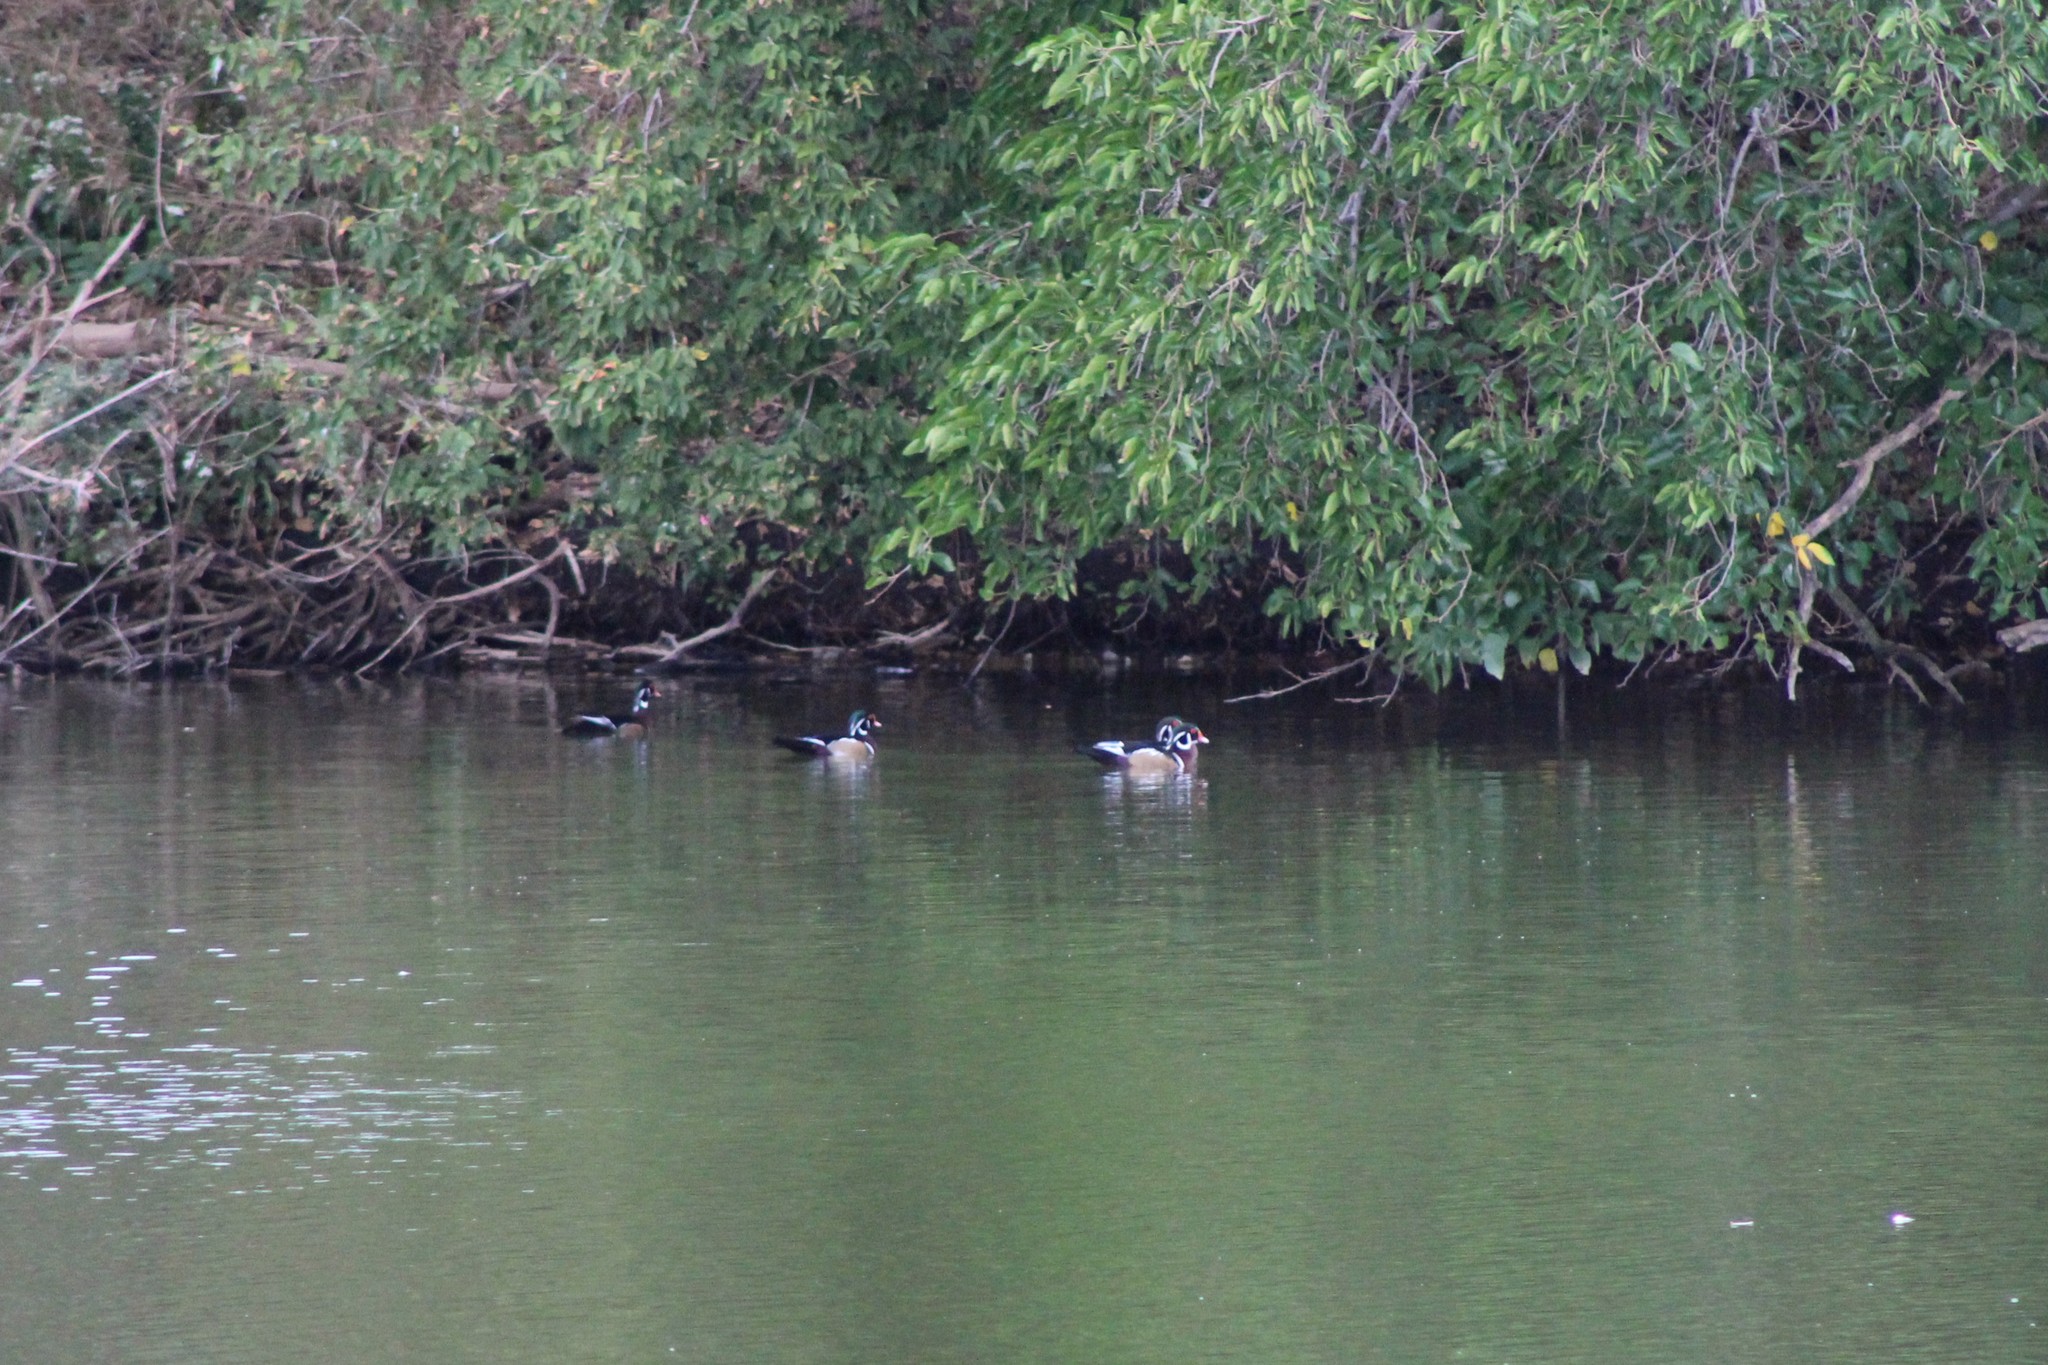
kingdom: Animalia
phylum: Chordata
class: Aves
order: Anseriformes
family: Anatidae
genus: Aix
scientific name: Aix sponsa
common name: Wood duck
